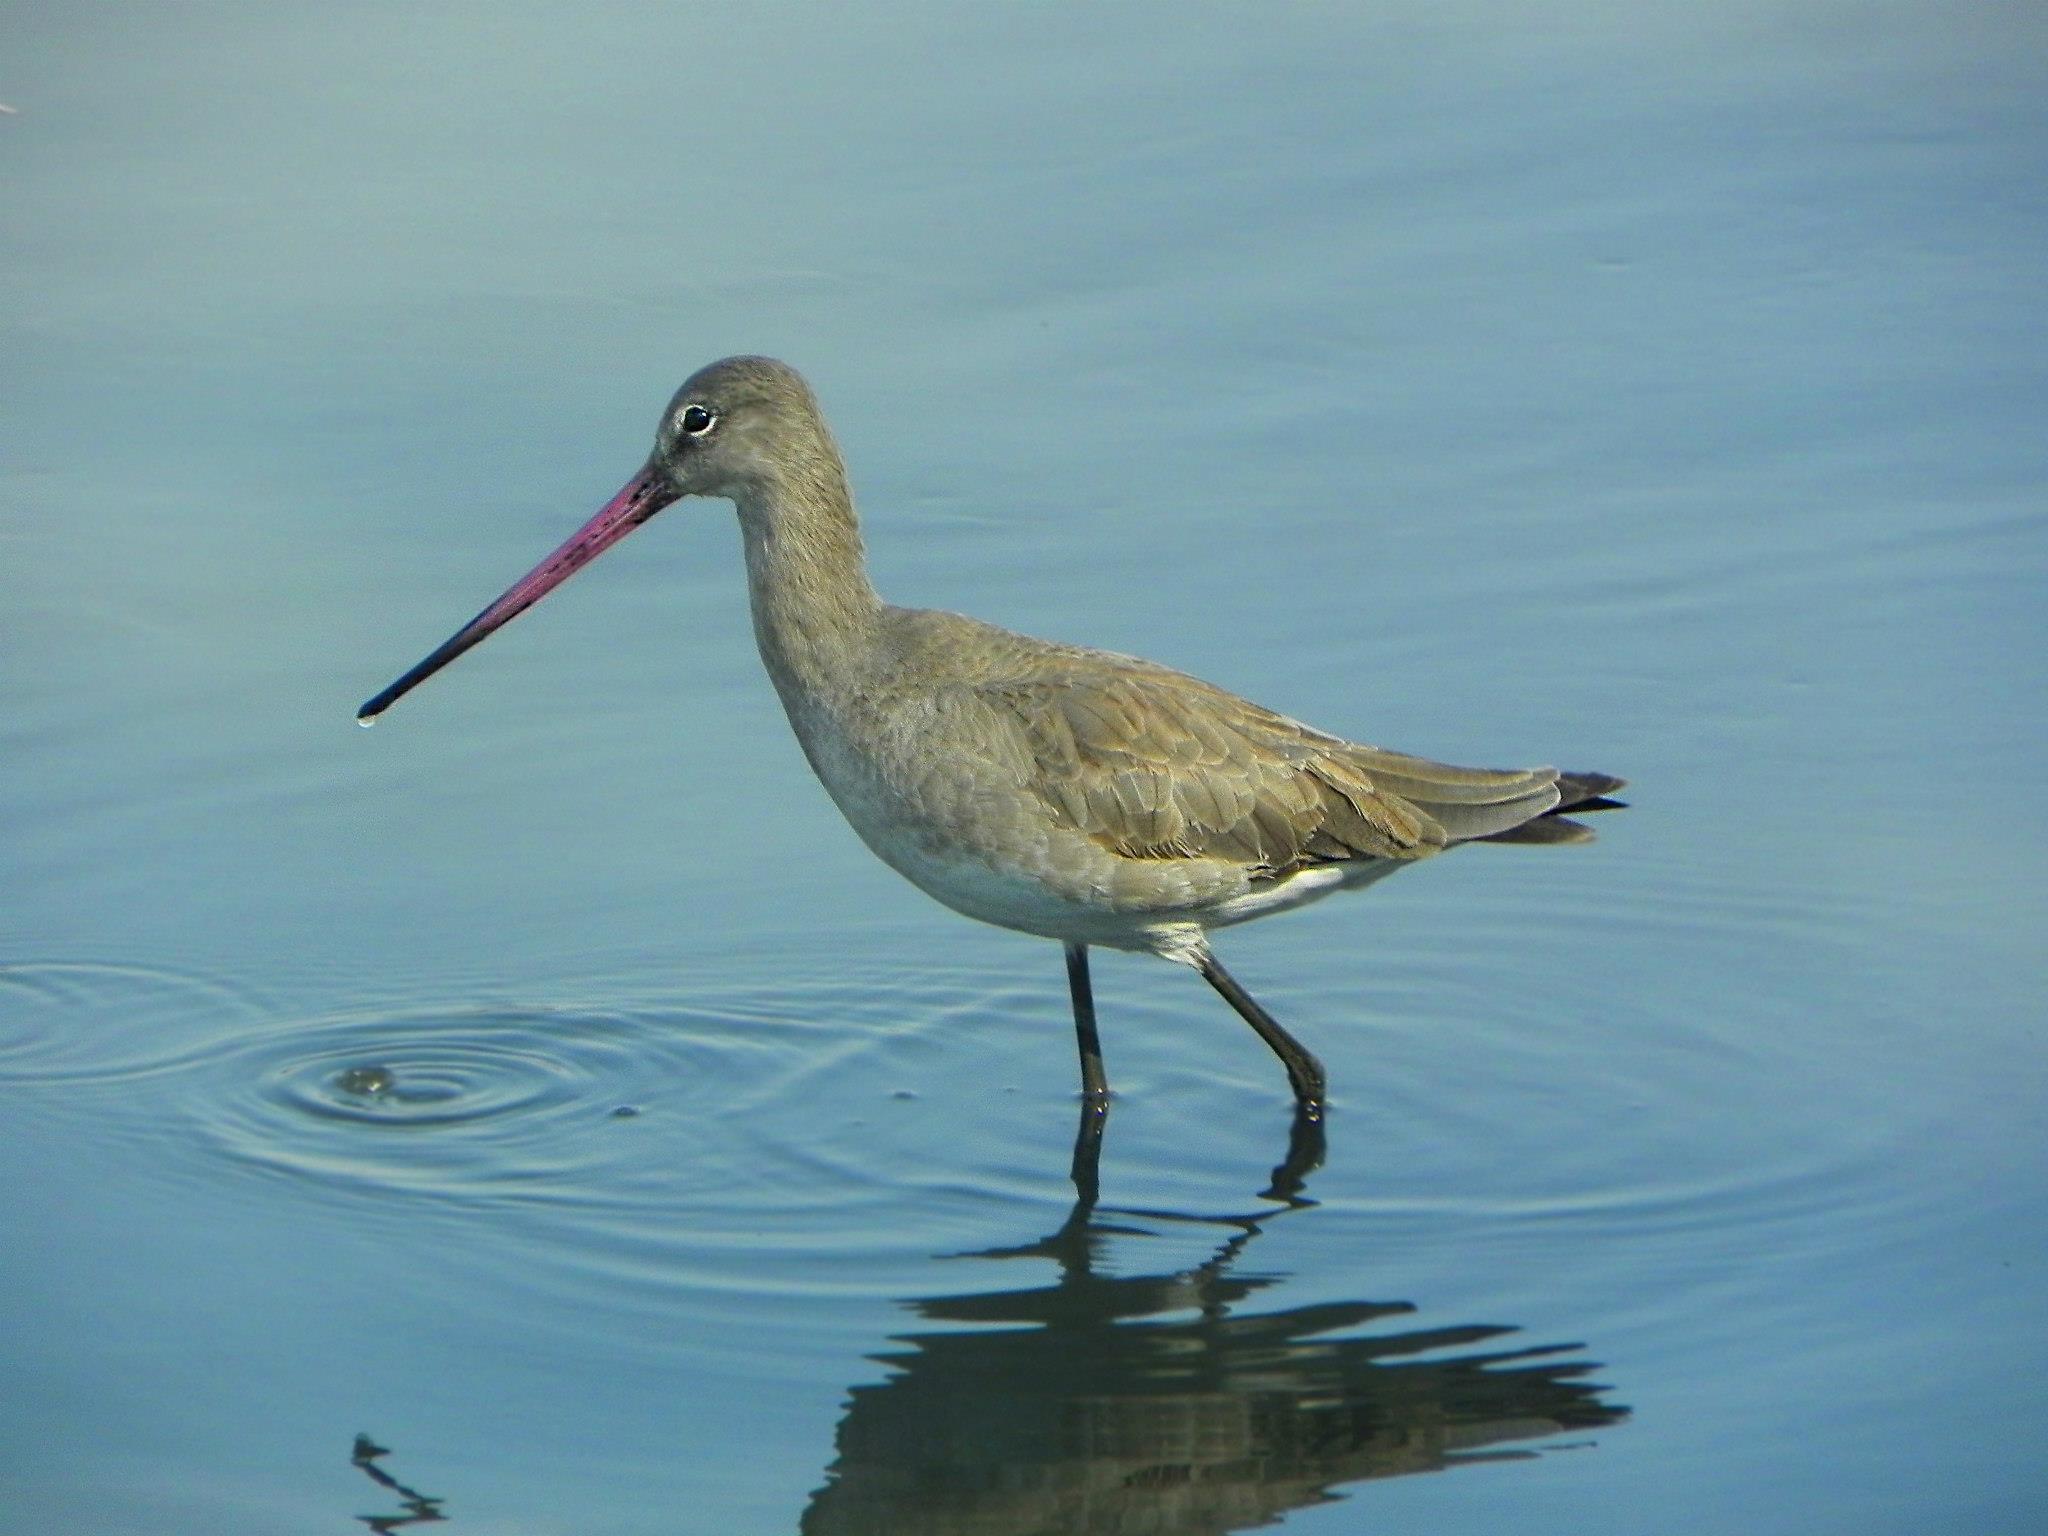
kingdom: Animalia
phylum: Chordata
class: Aves
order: Charadriiformes
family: Scolopacidae
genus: Limosa
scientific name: Limosa limosa
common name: Black-tailed godwit
